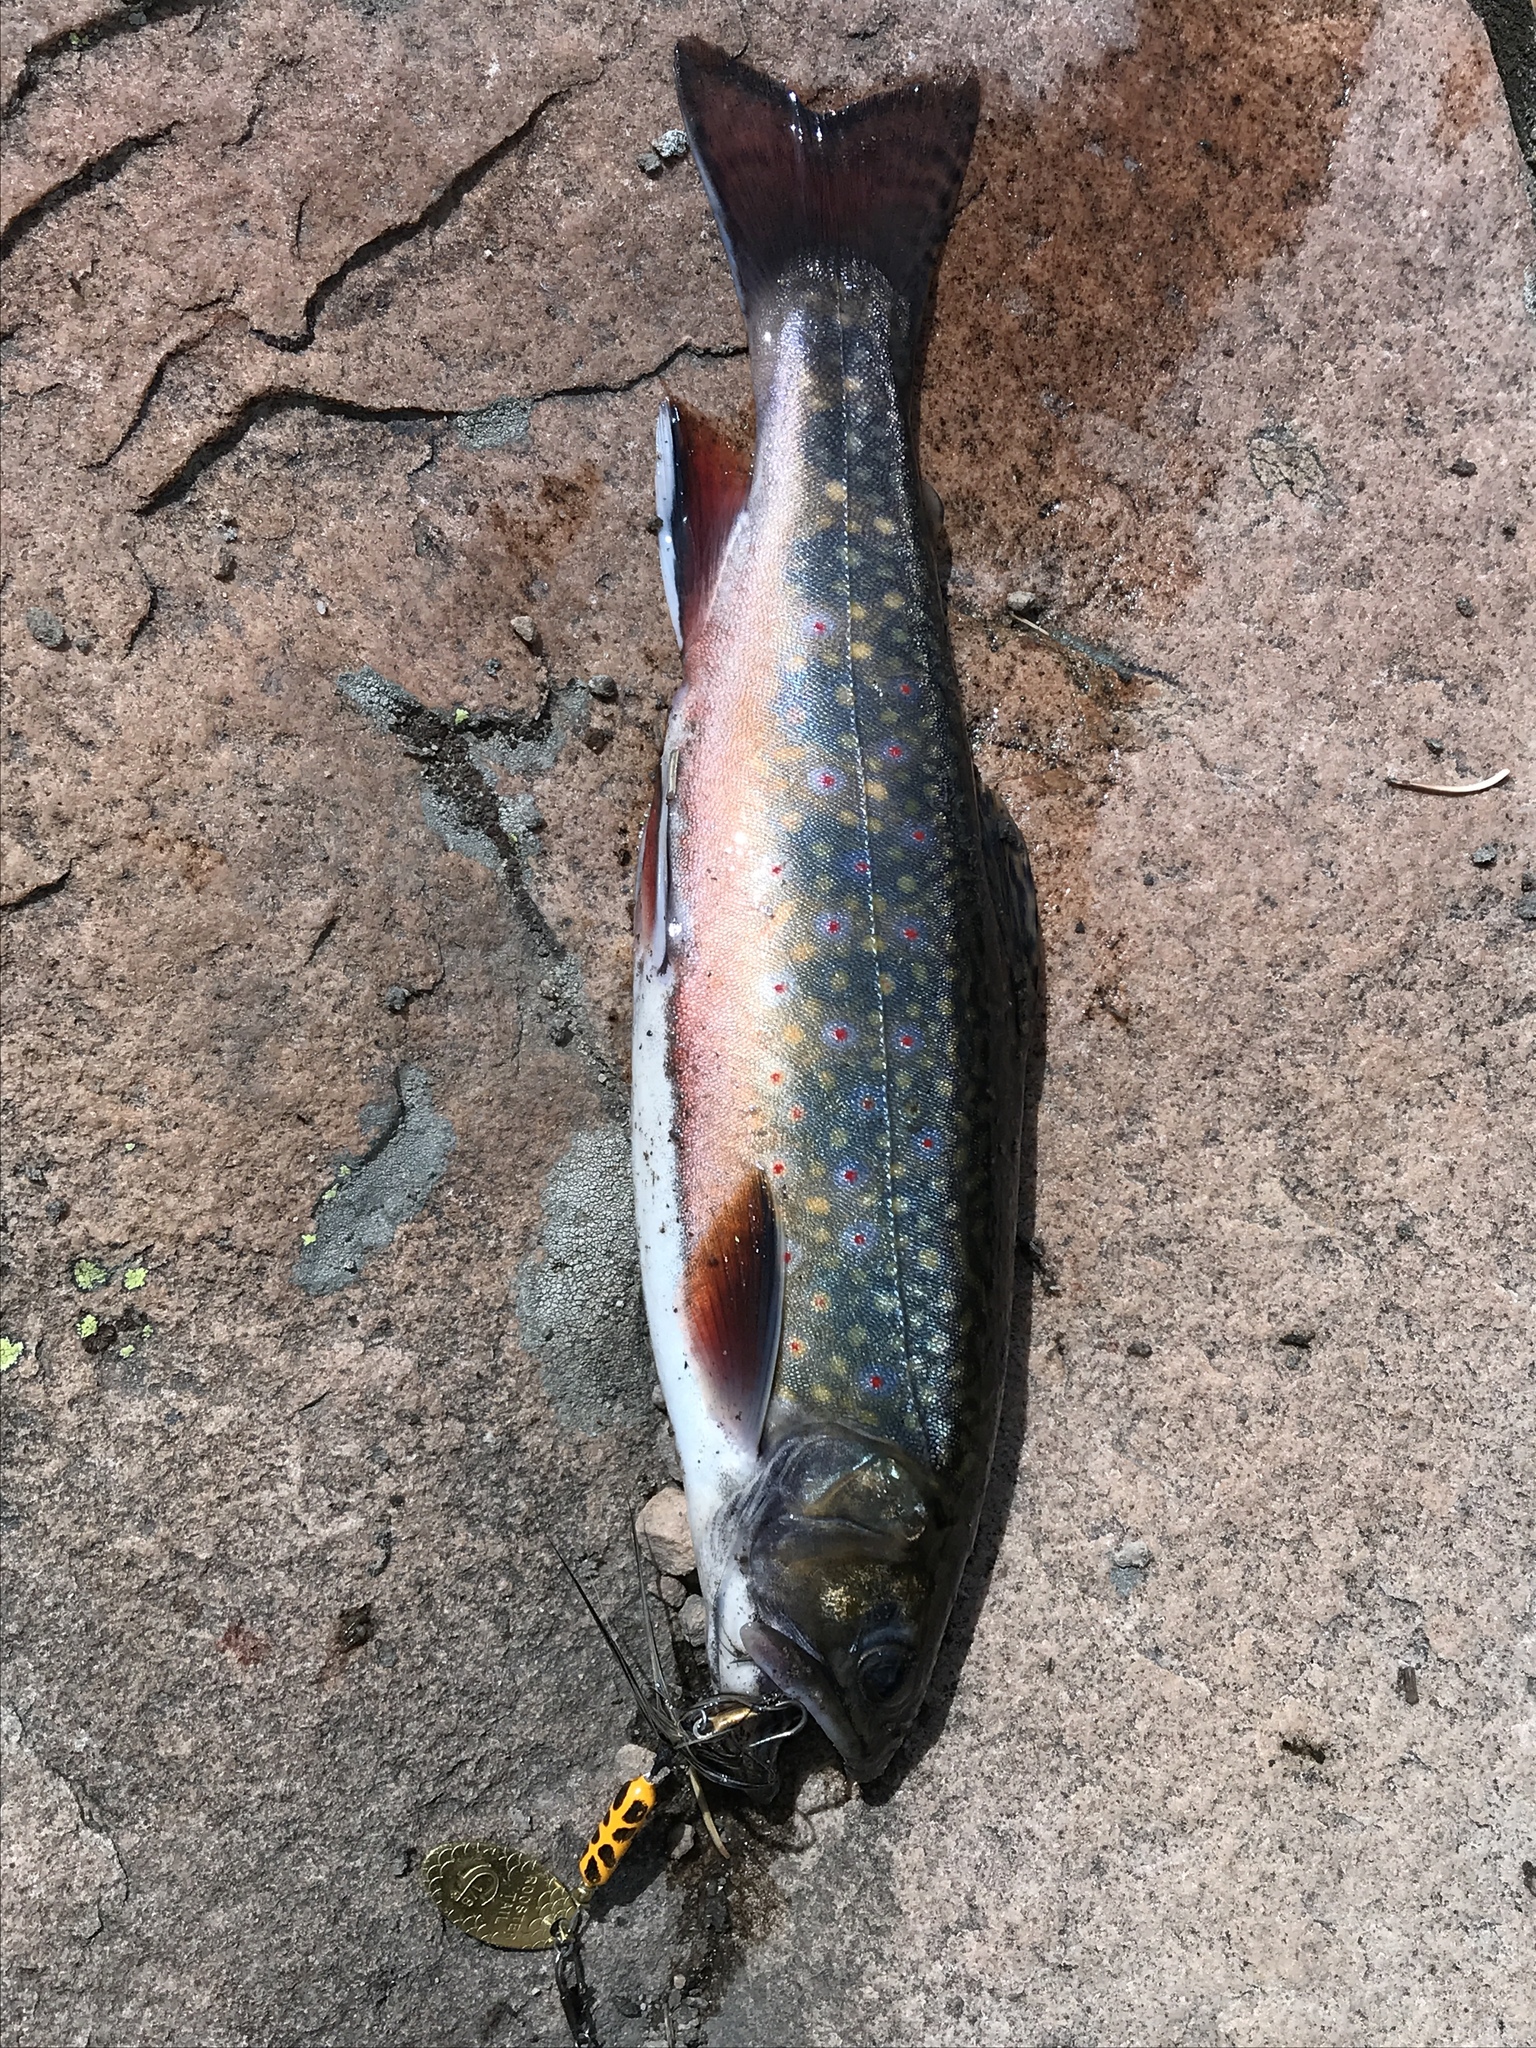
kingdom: Animalia
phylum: Chordata
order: Salmoniformes
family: Salmonidae
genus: Salvelinus
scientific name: Salvelinus fontinalis
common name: Brook trout
